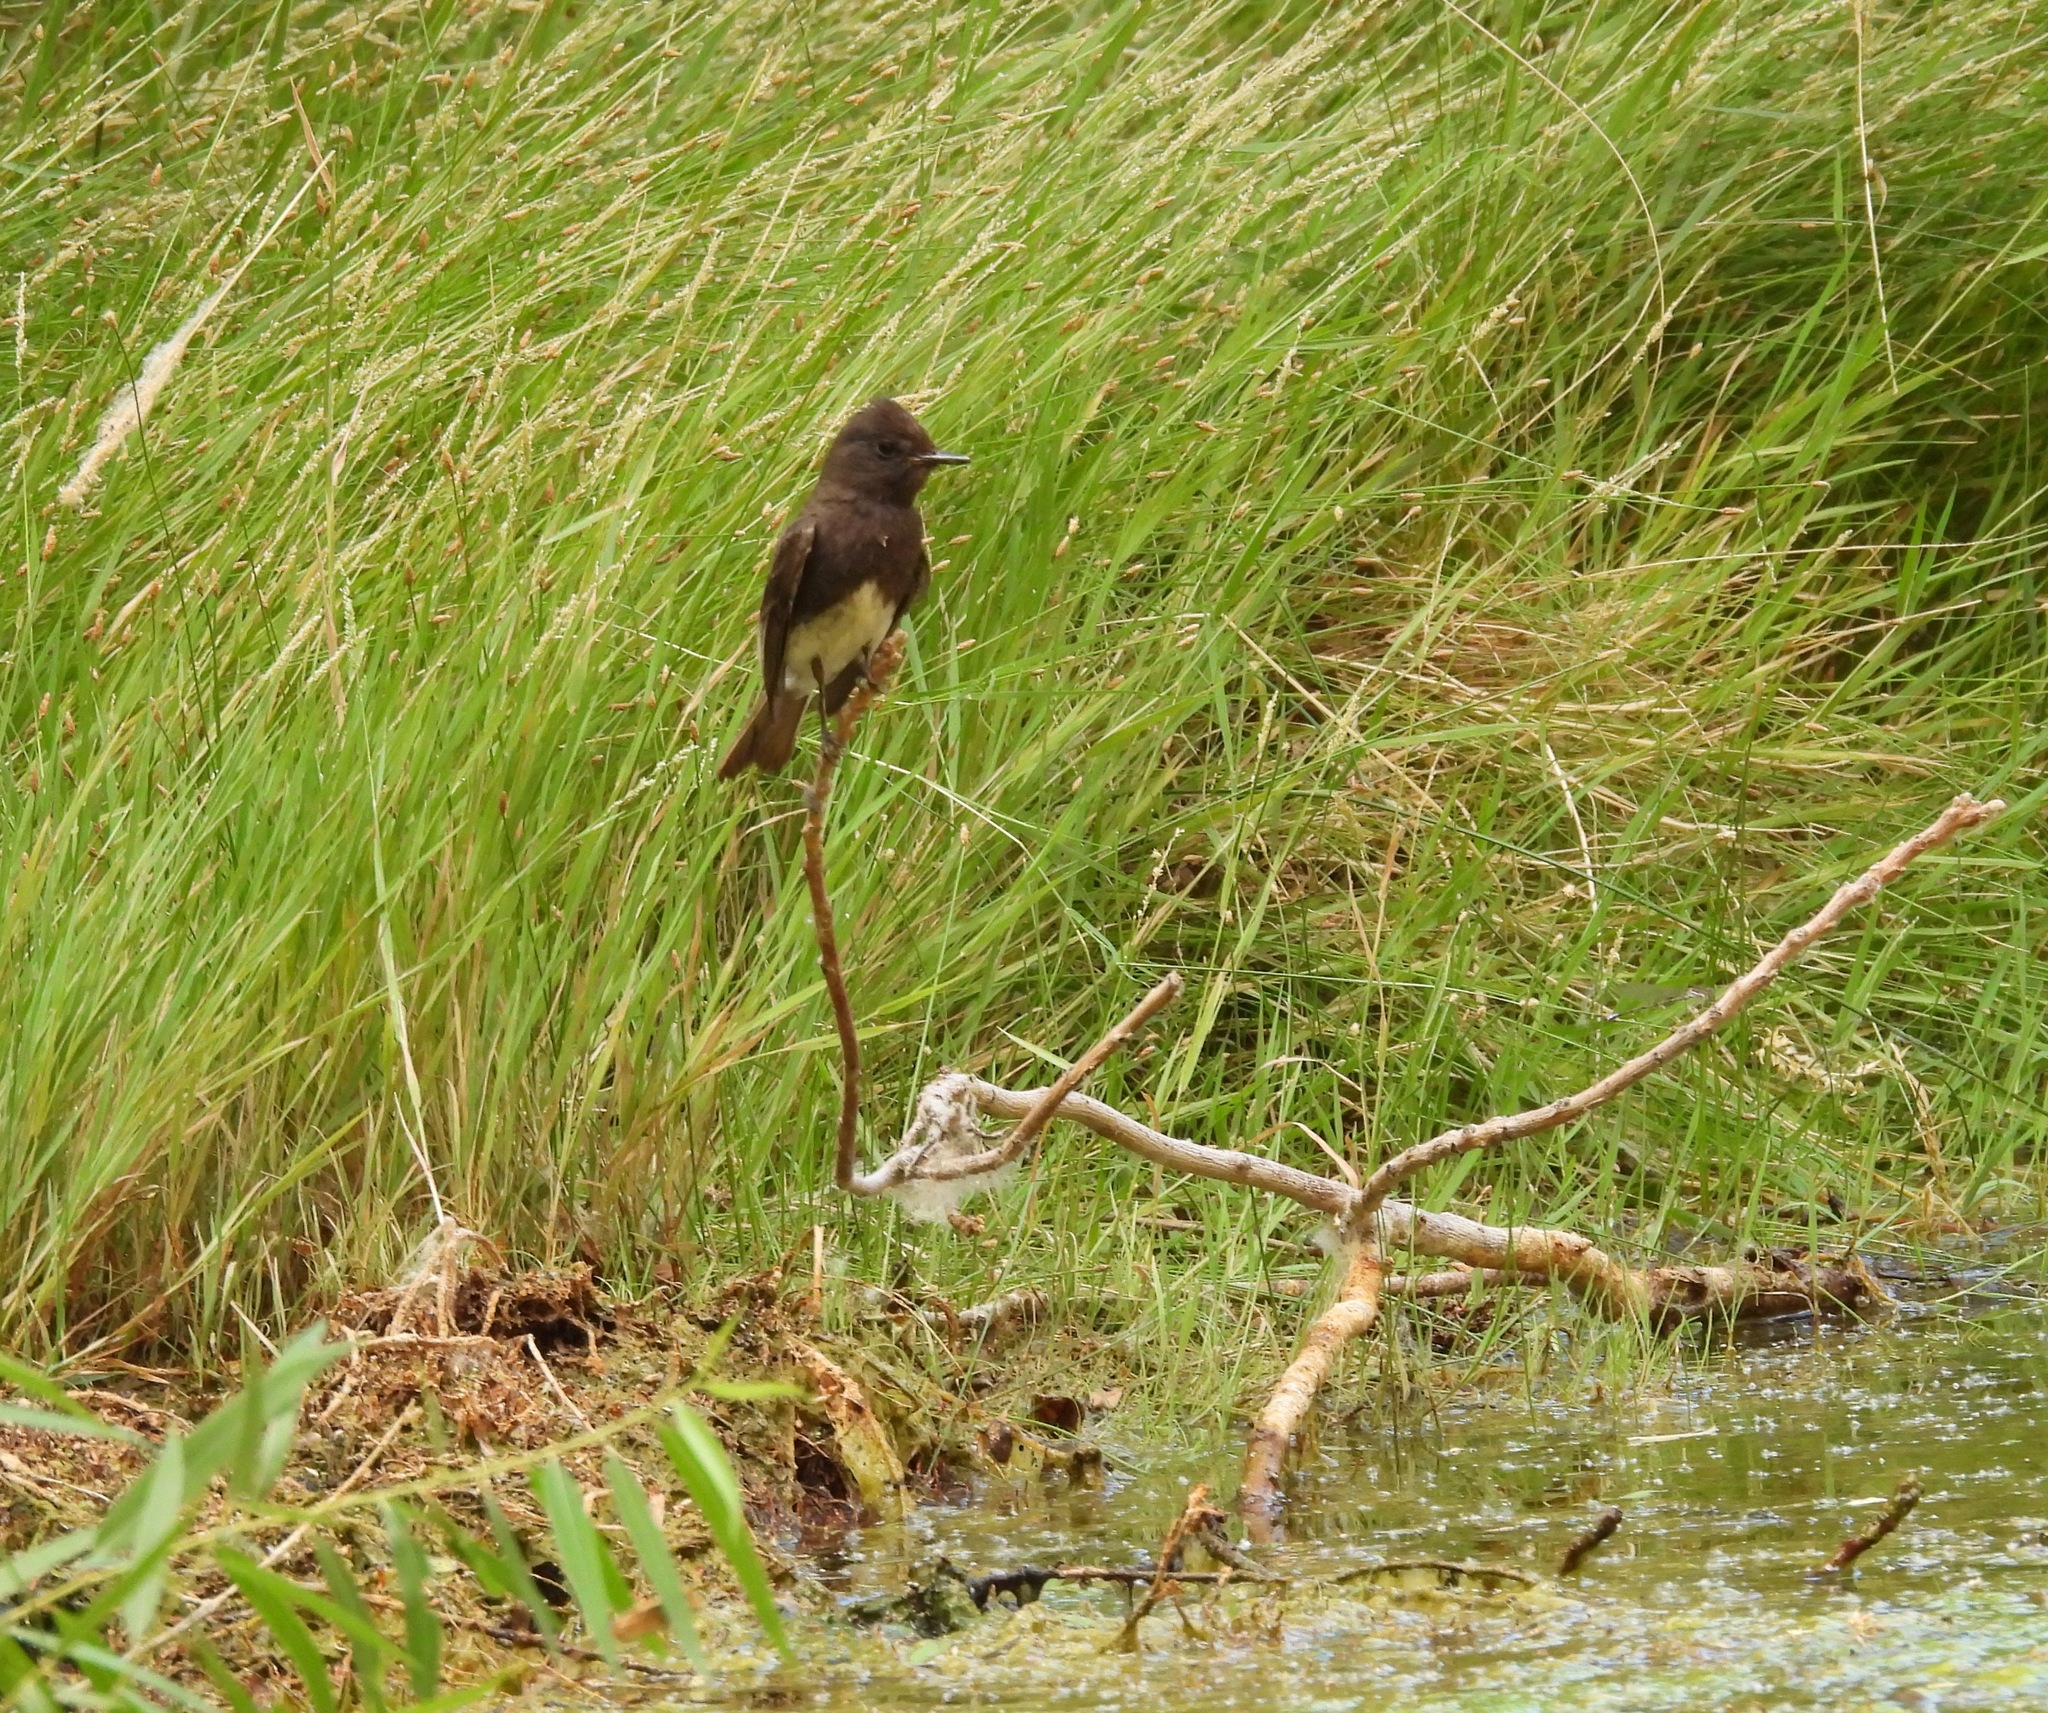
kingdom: Animalia
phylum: Chordata
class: Aves
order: Passeriformes
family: Tyrannidae
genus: Sayornis
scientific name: Sayornis nigricans
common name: Black phoebe
